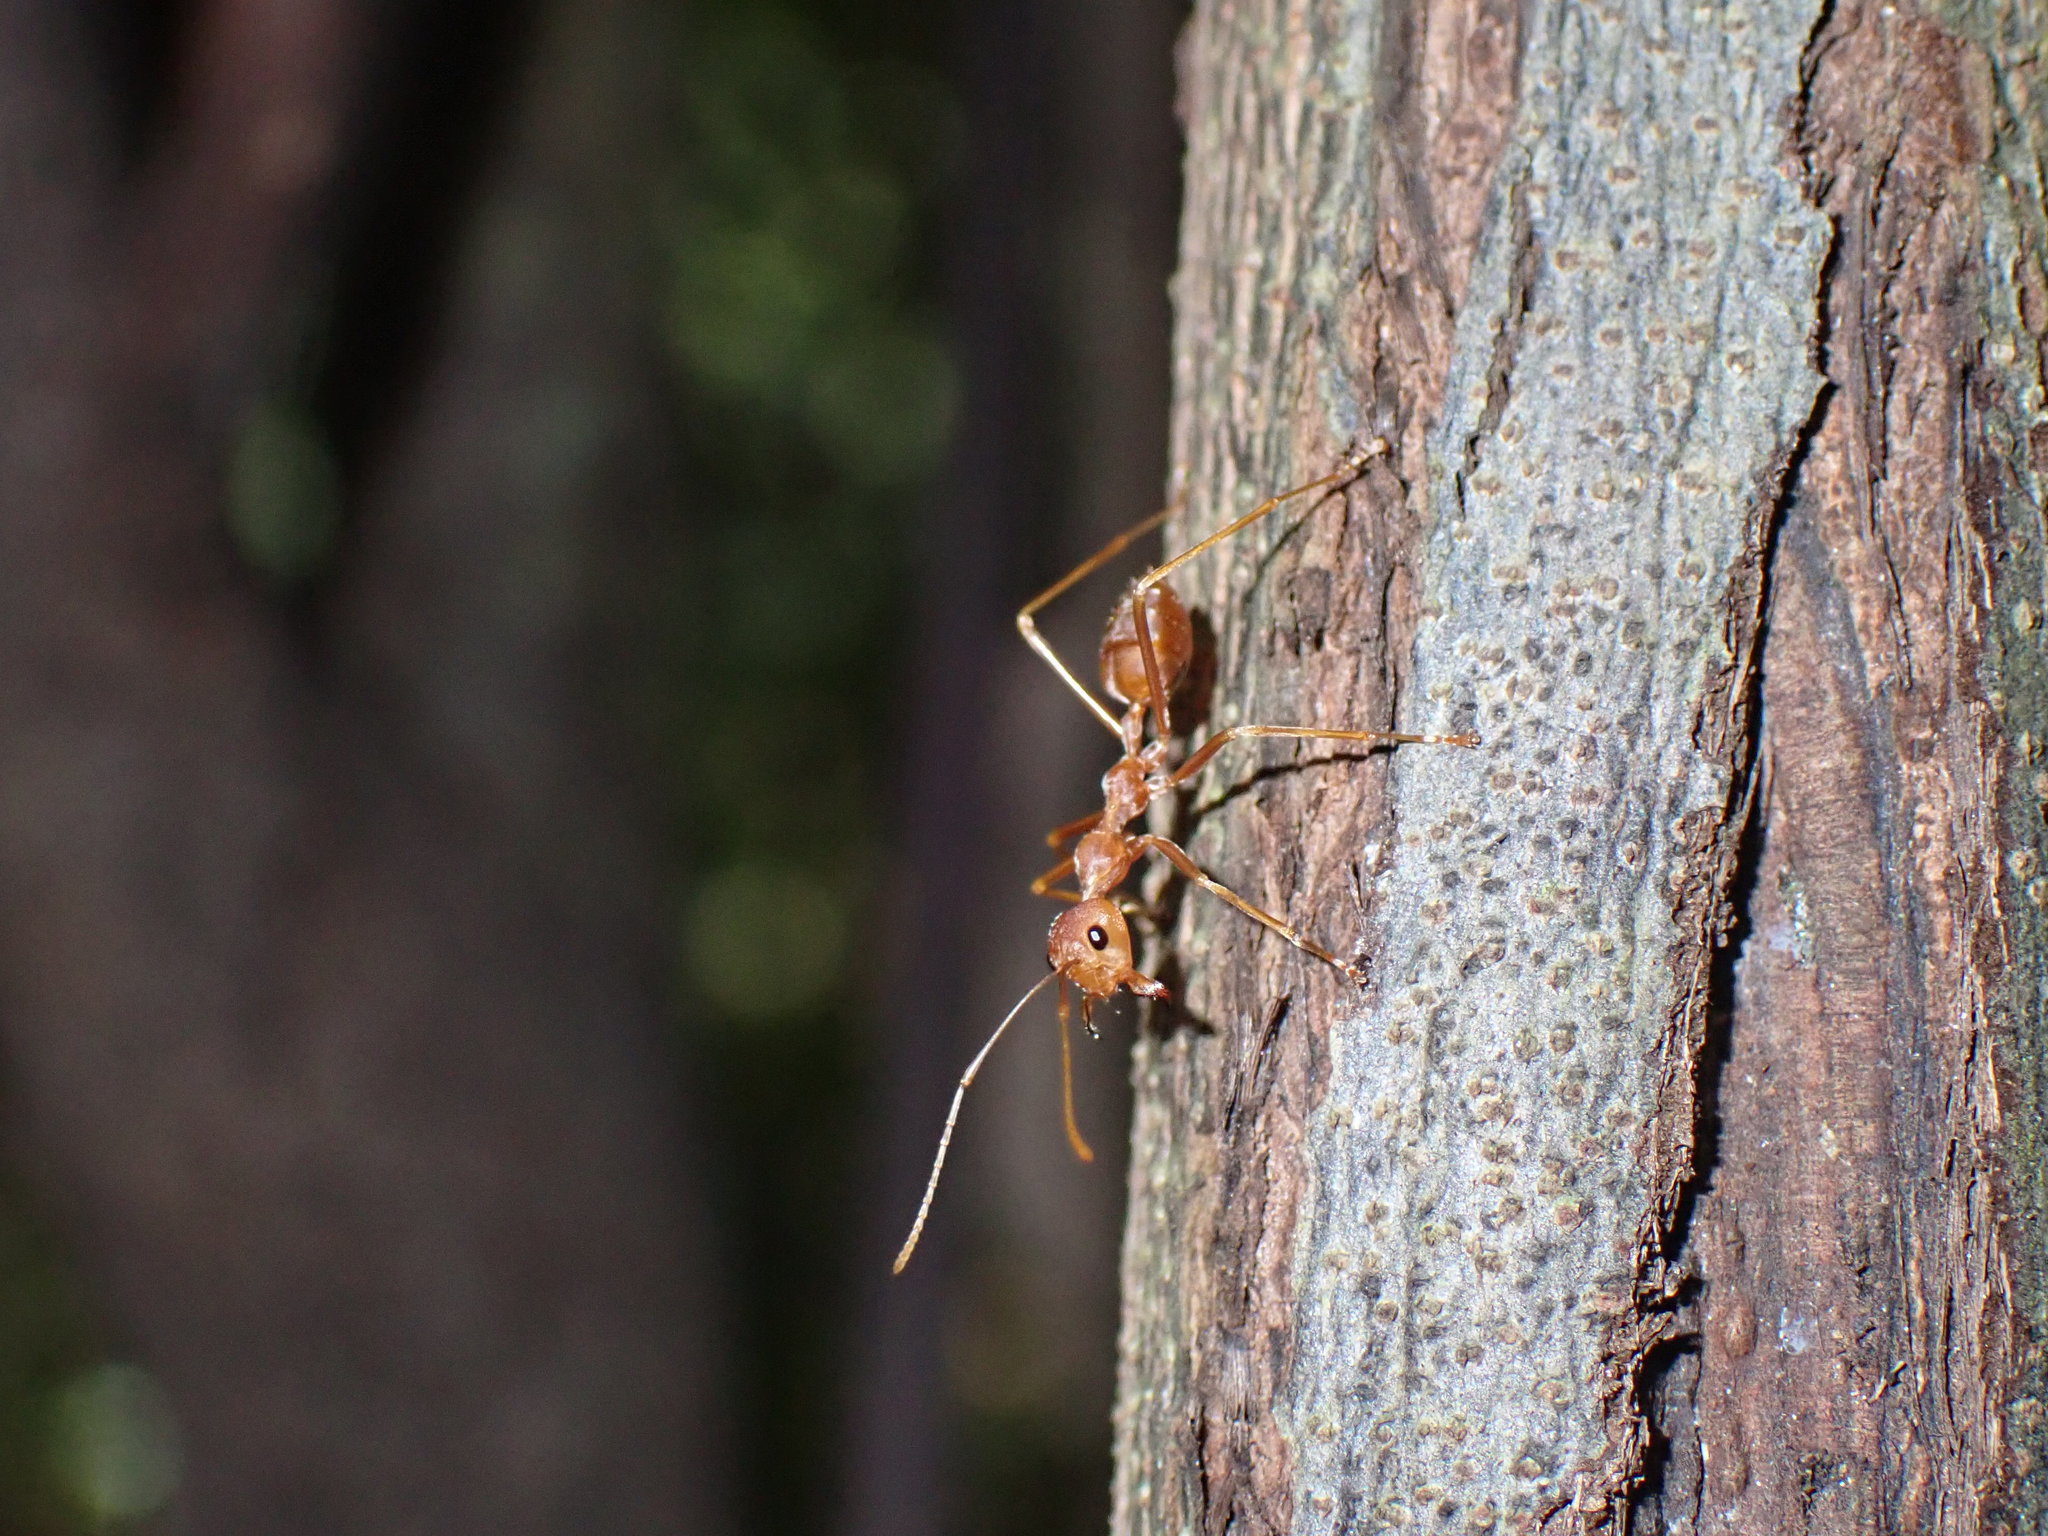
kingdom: Animalia
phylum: Arthropoda
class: Insecta
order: Hymenoptera
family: Formicidae
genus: Oecophylla
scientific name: Oecophylla smaragdina
